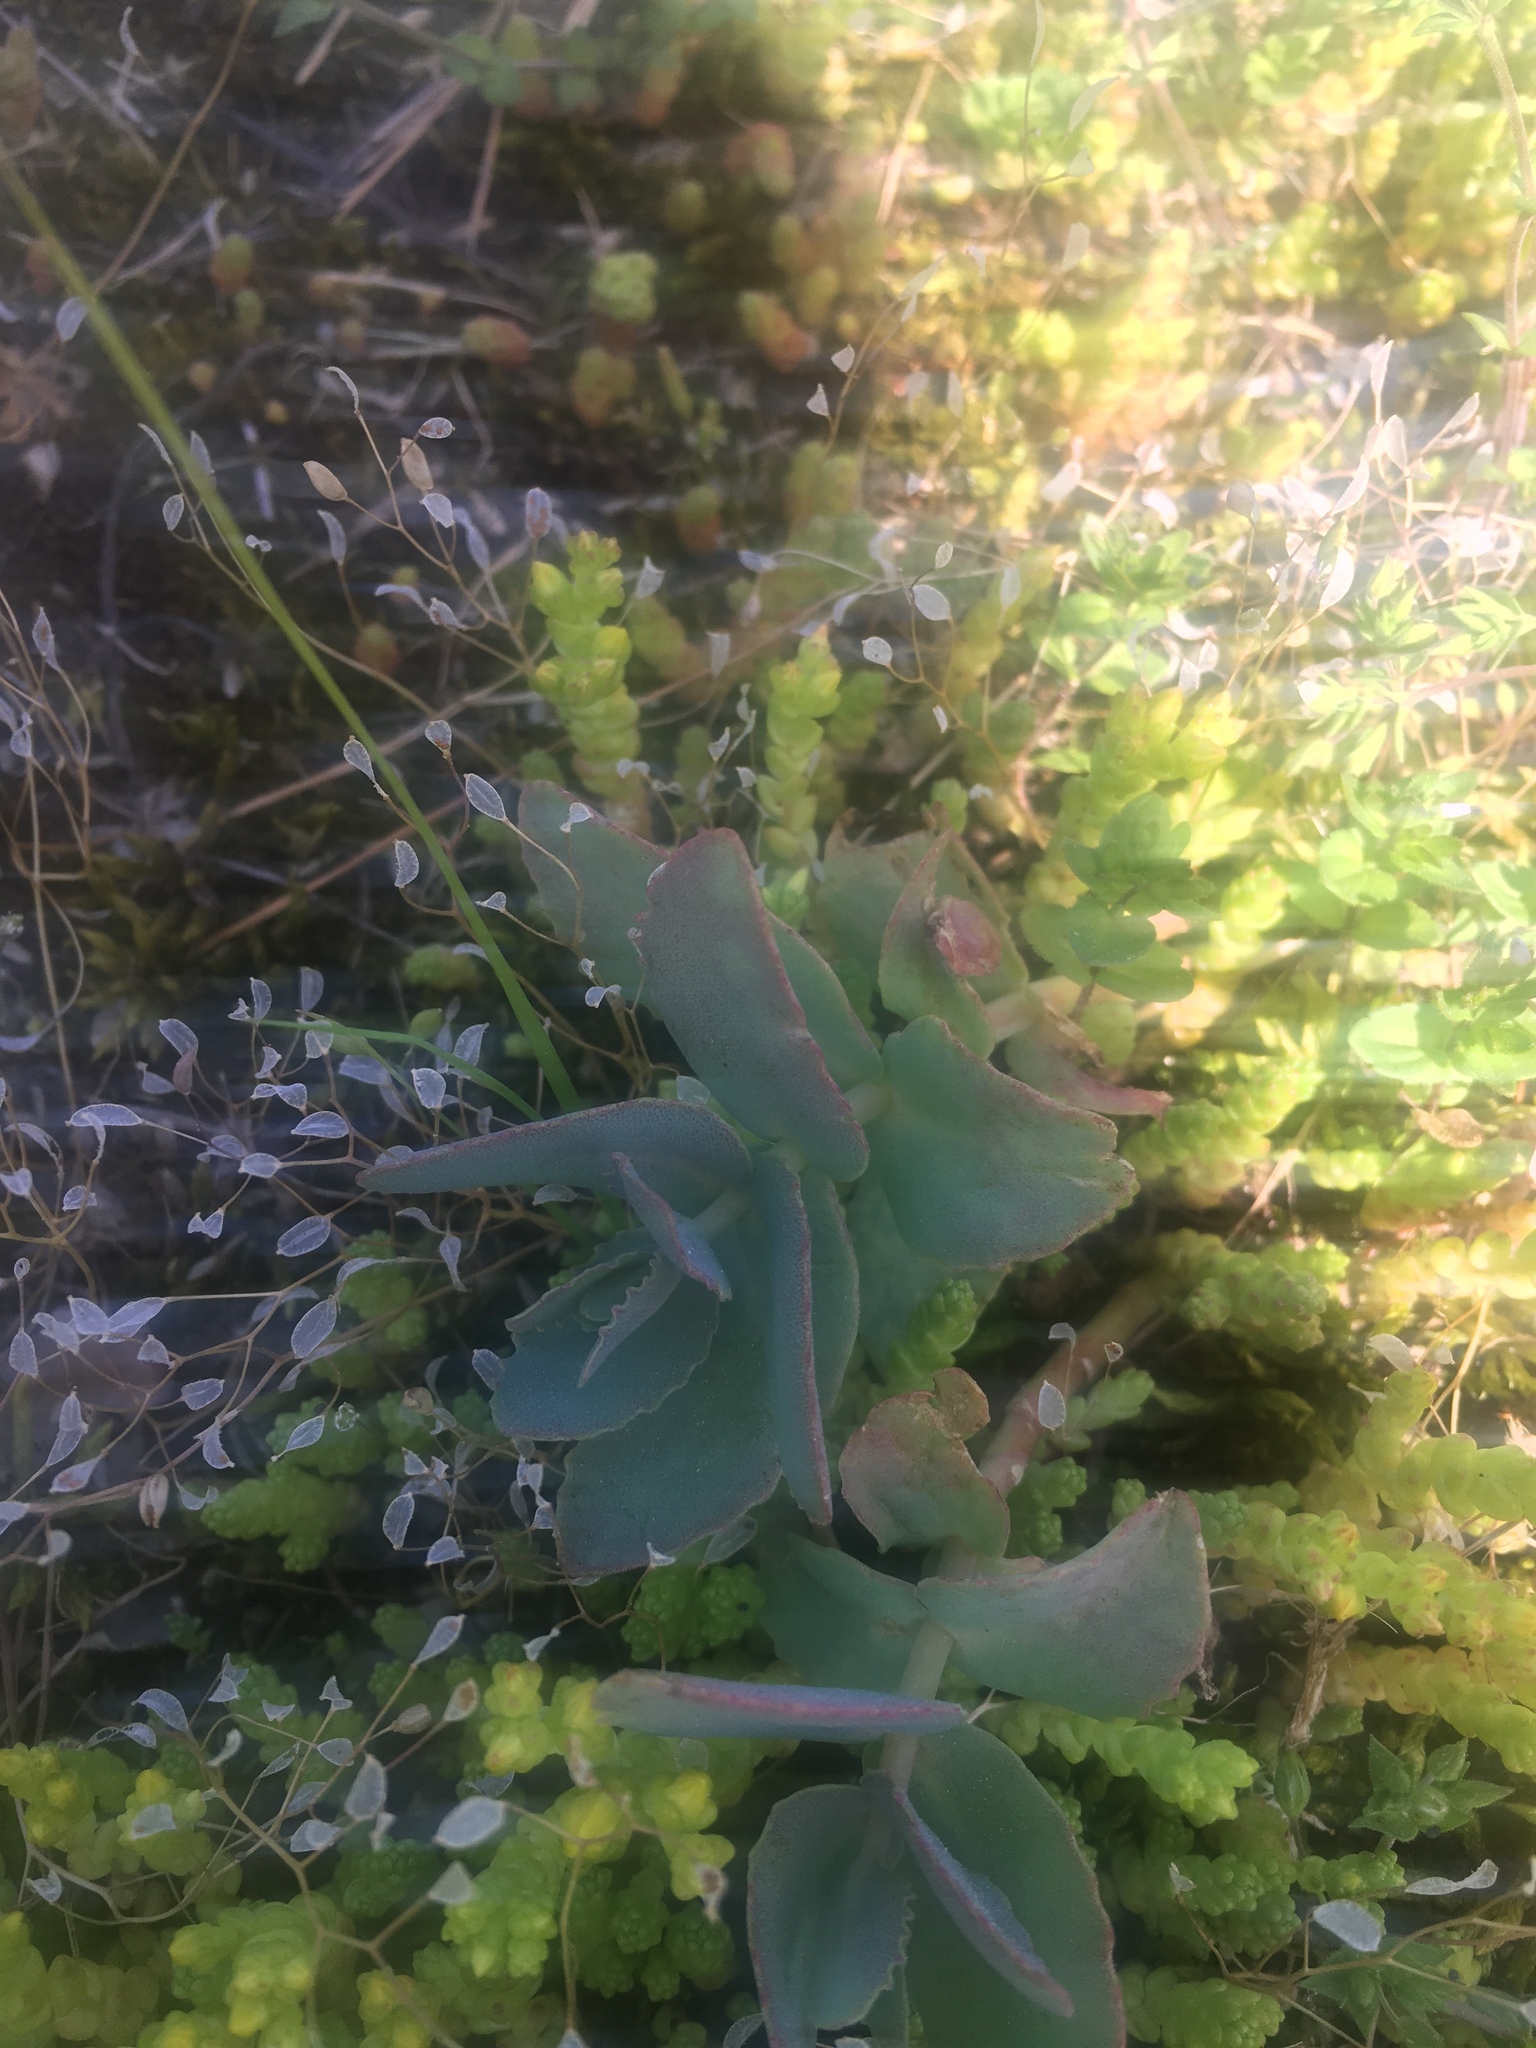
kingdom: Plantae
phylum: Tracheophyta
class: Magnoliopsida
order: Saxifragales
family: Crassulaceae
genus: Hylotelephium
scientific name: Hylotelephium maximum
